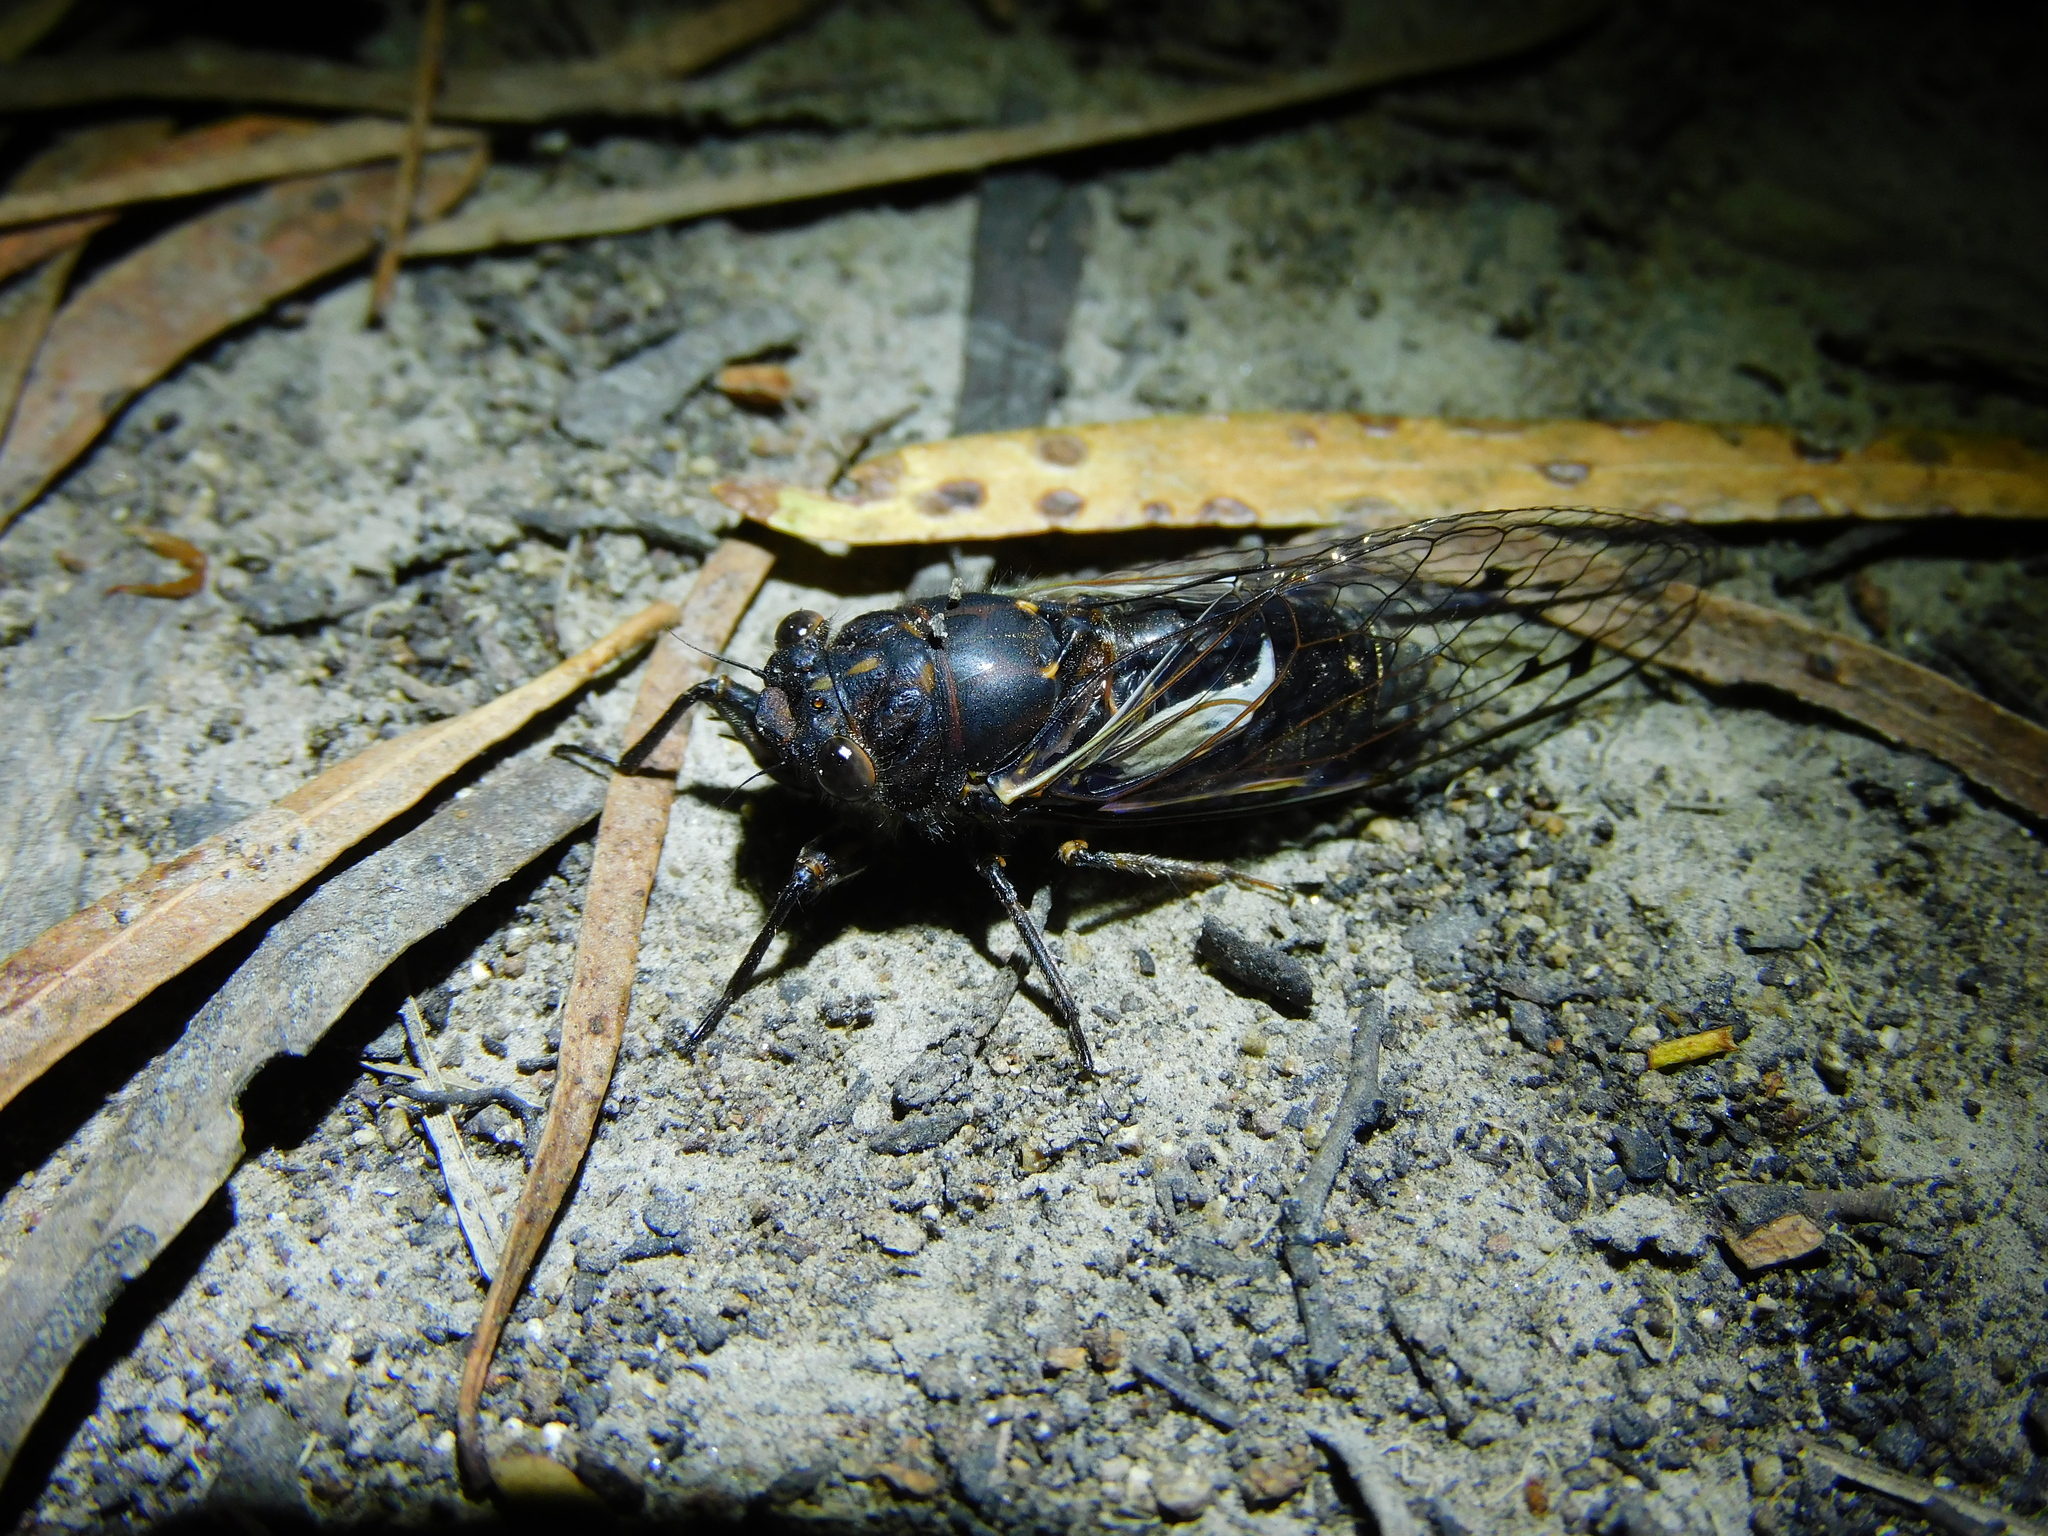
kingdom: Animalia
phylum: Arthropoda
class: Insecta
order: Hemiptera
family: Cicadidae
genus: Gelidea
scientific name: Gelidea torrida
